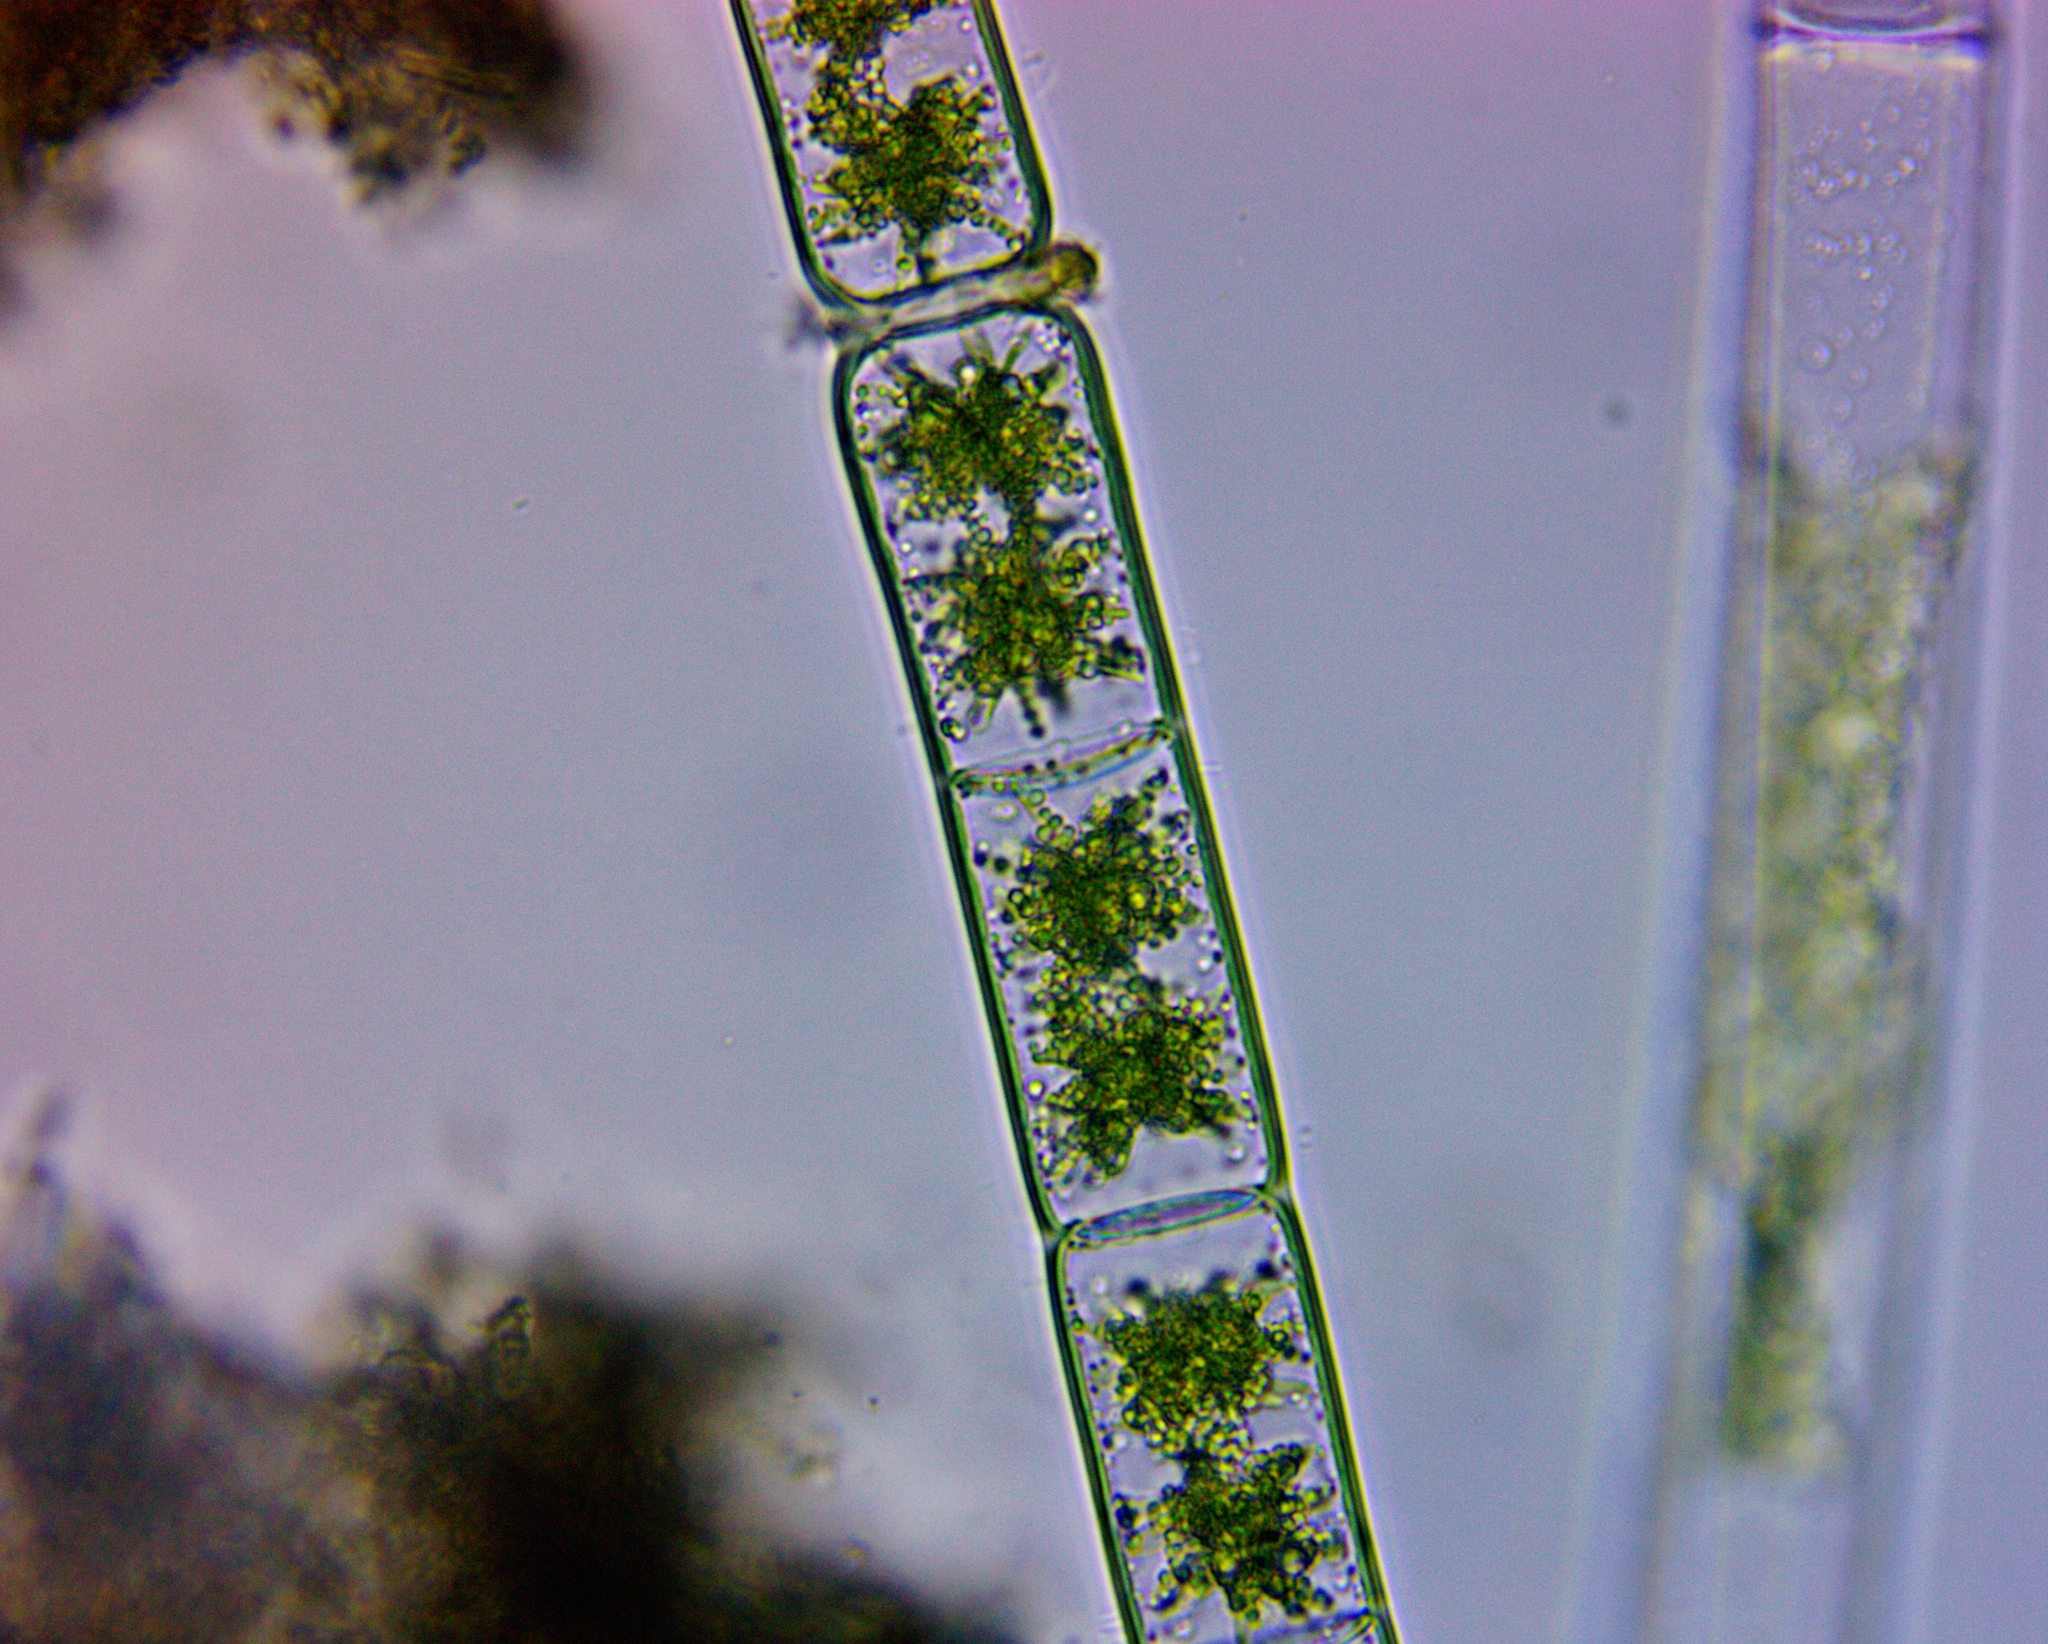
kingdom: Plantae
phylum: Charophyta
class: Zygnematophyceae
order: Zygnematales
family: Zygnemataceae
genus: Zygnema
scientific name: Zygnema
